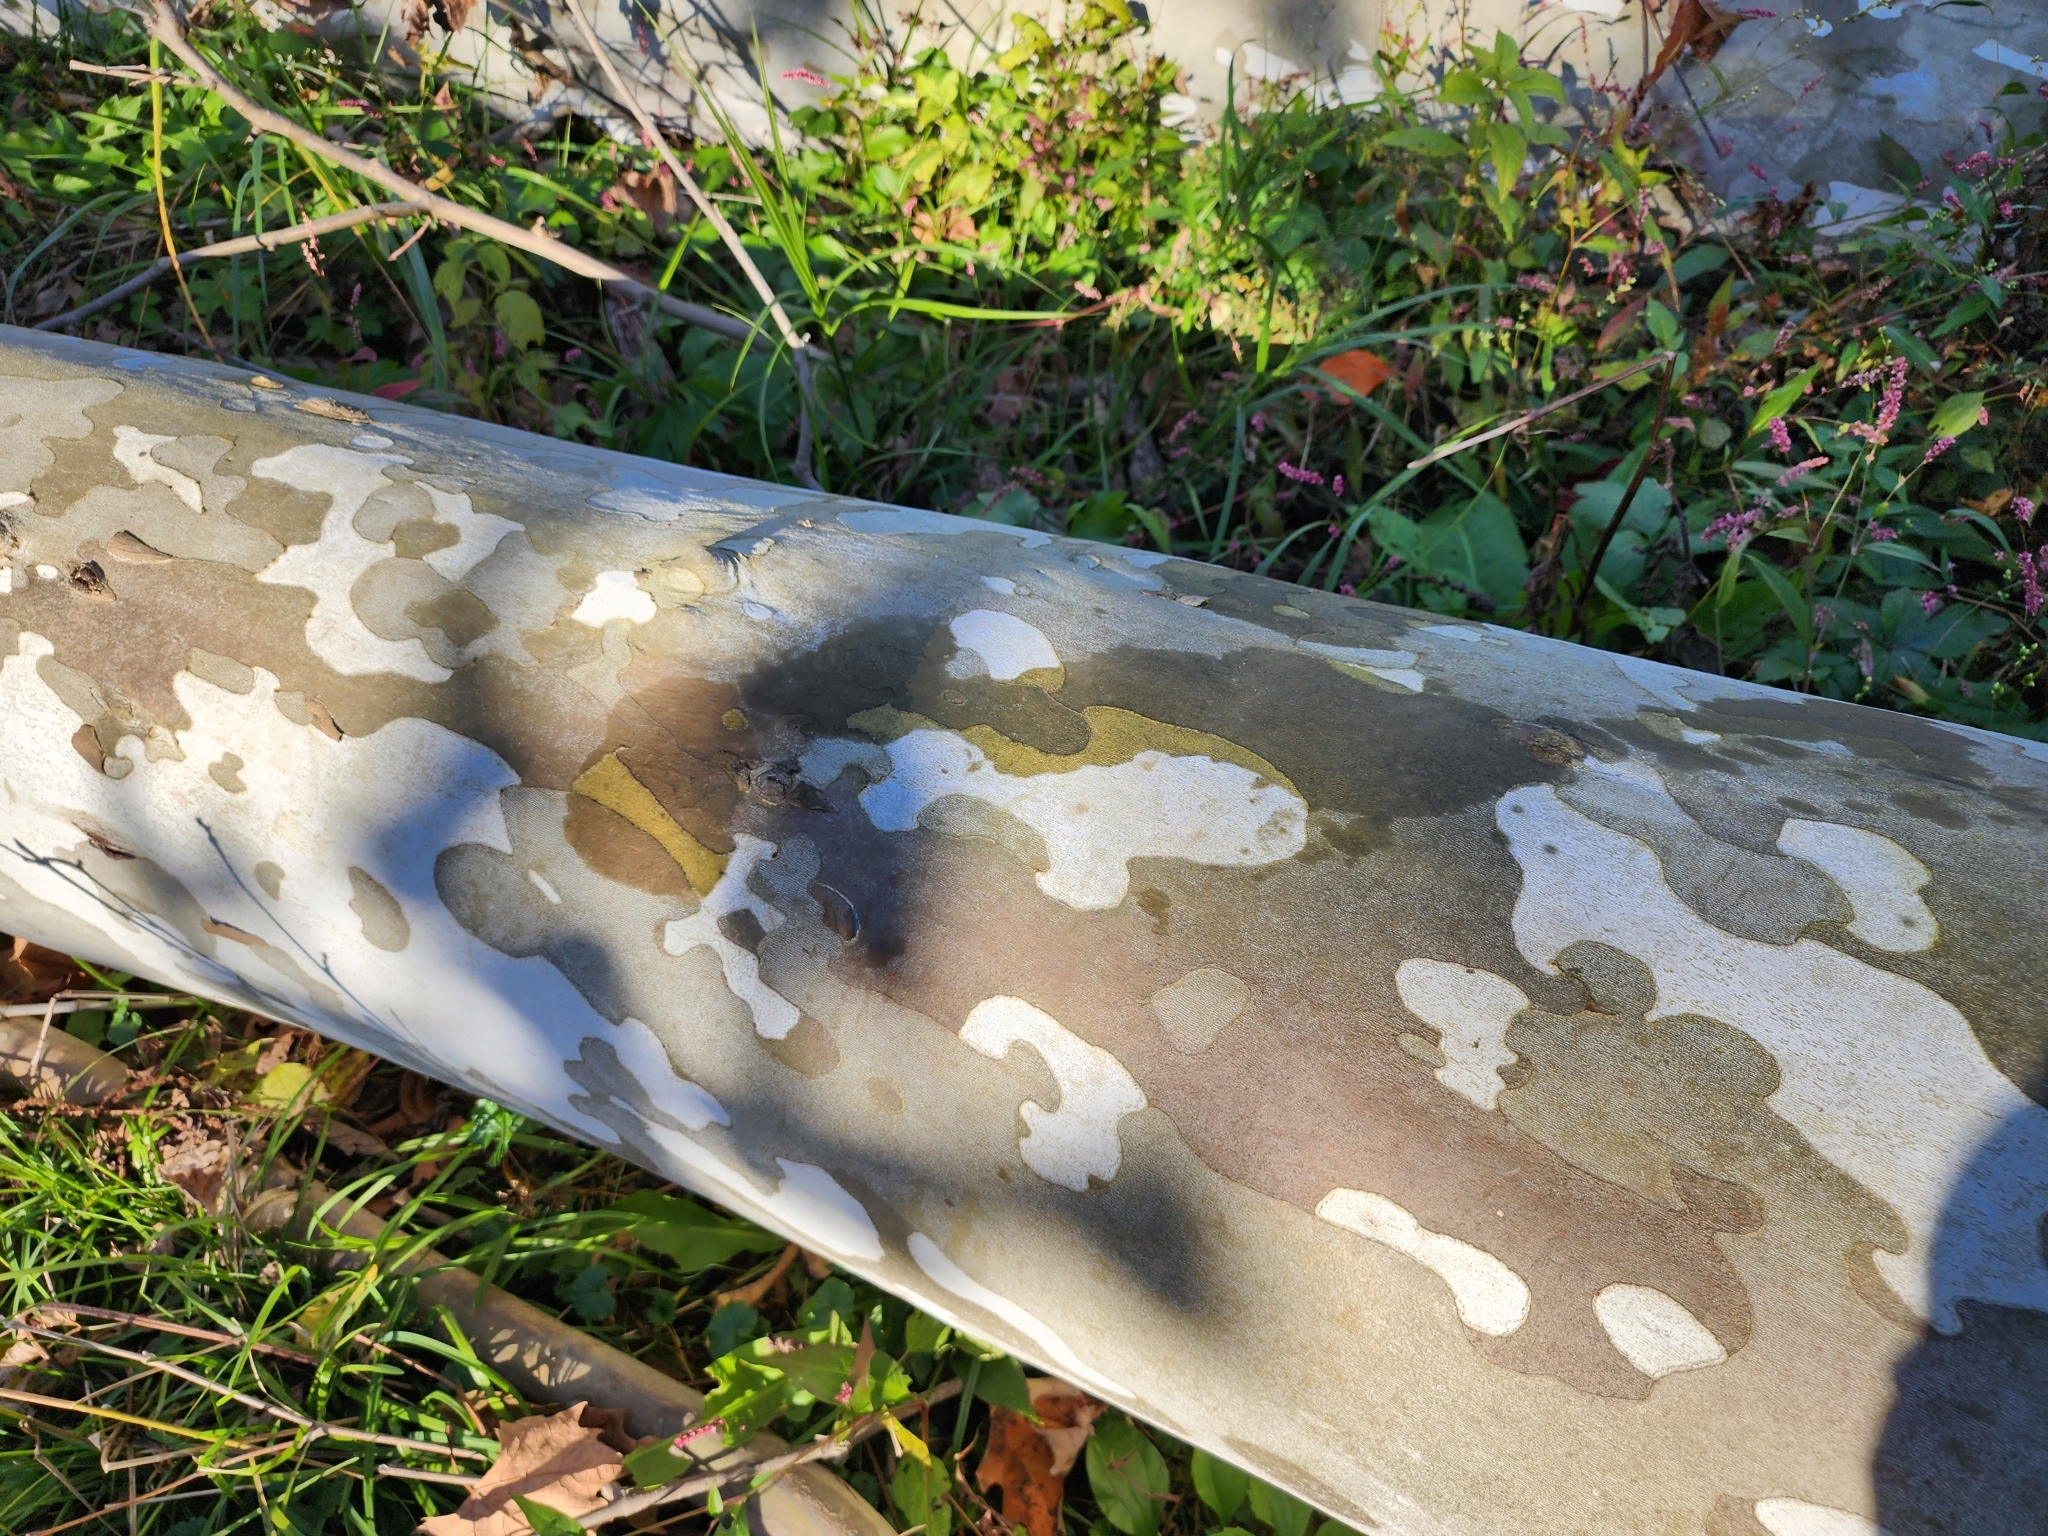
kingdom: Plantae
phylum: Tracheophyta
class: Magnoliopsida
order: Proteales
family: Platanaceae
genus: Platanus
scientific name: Platanus occidentalis
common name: American sycamore
